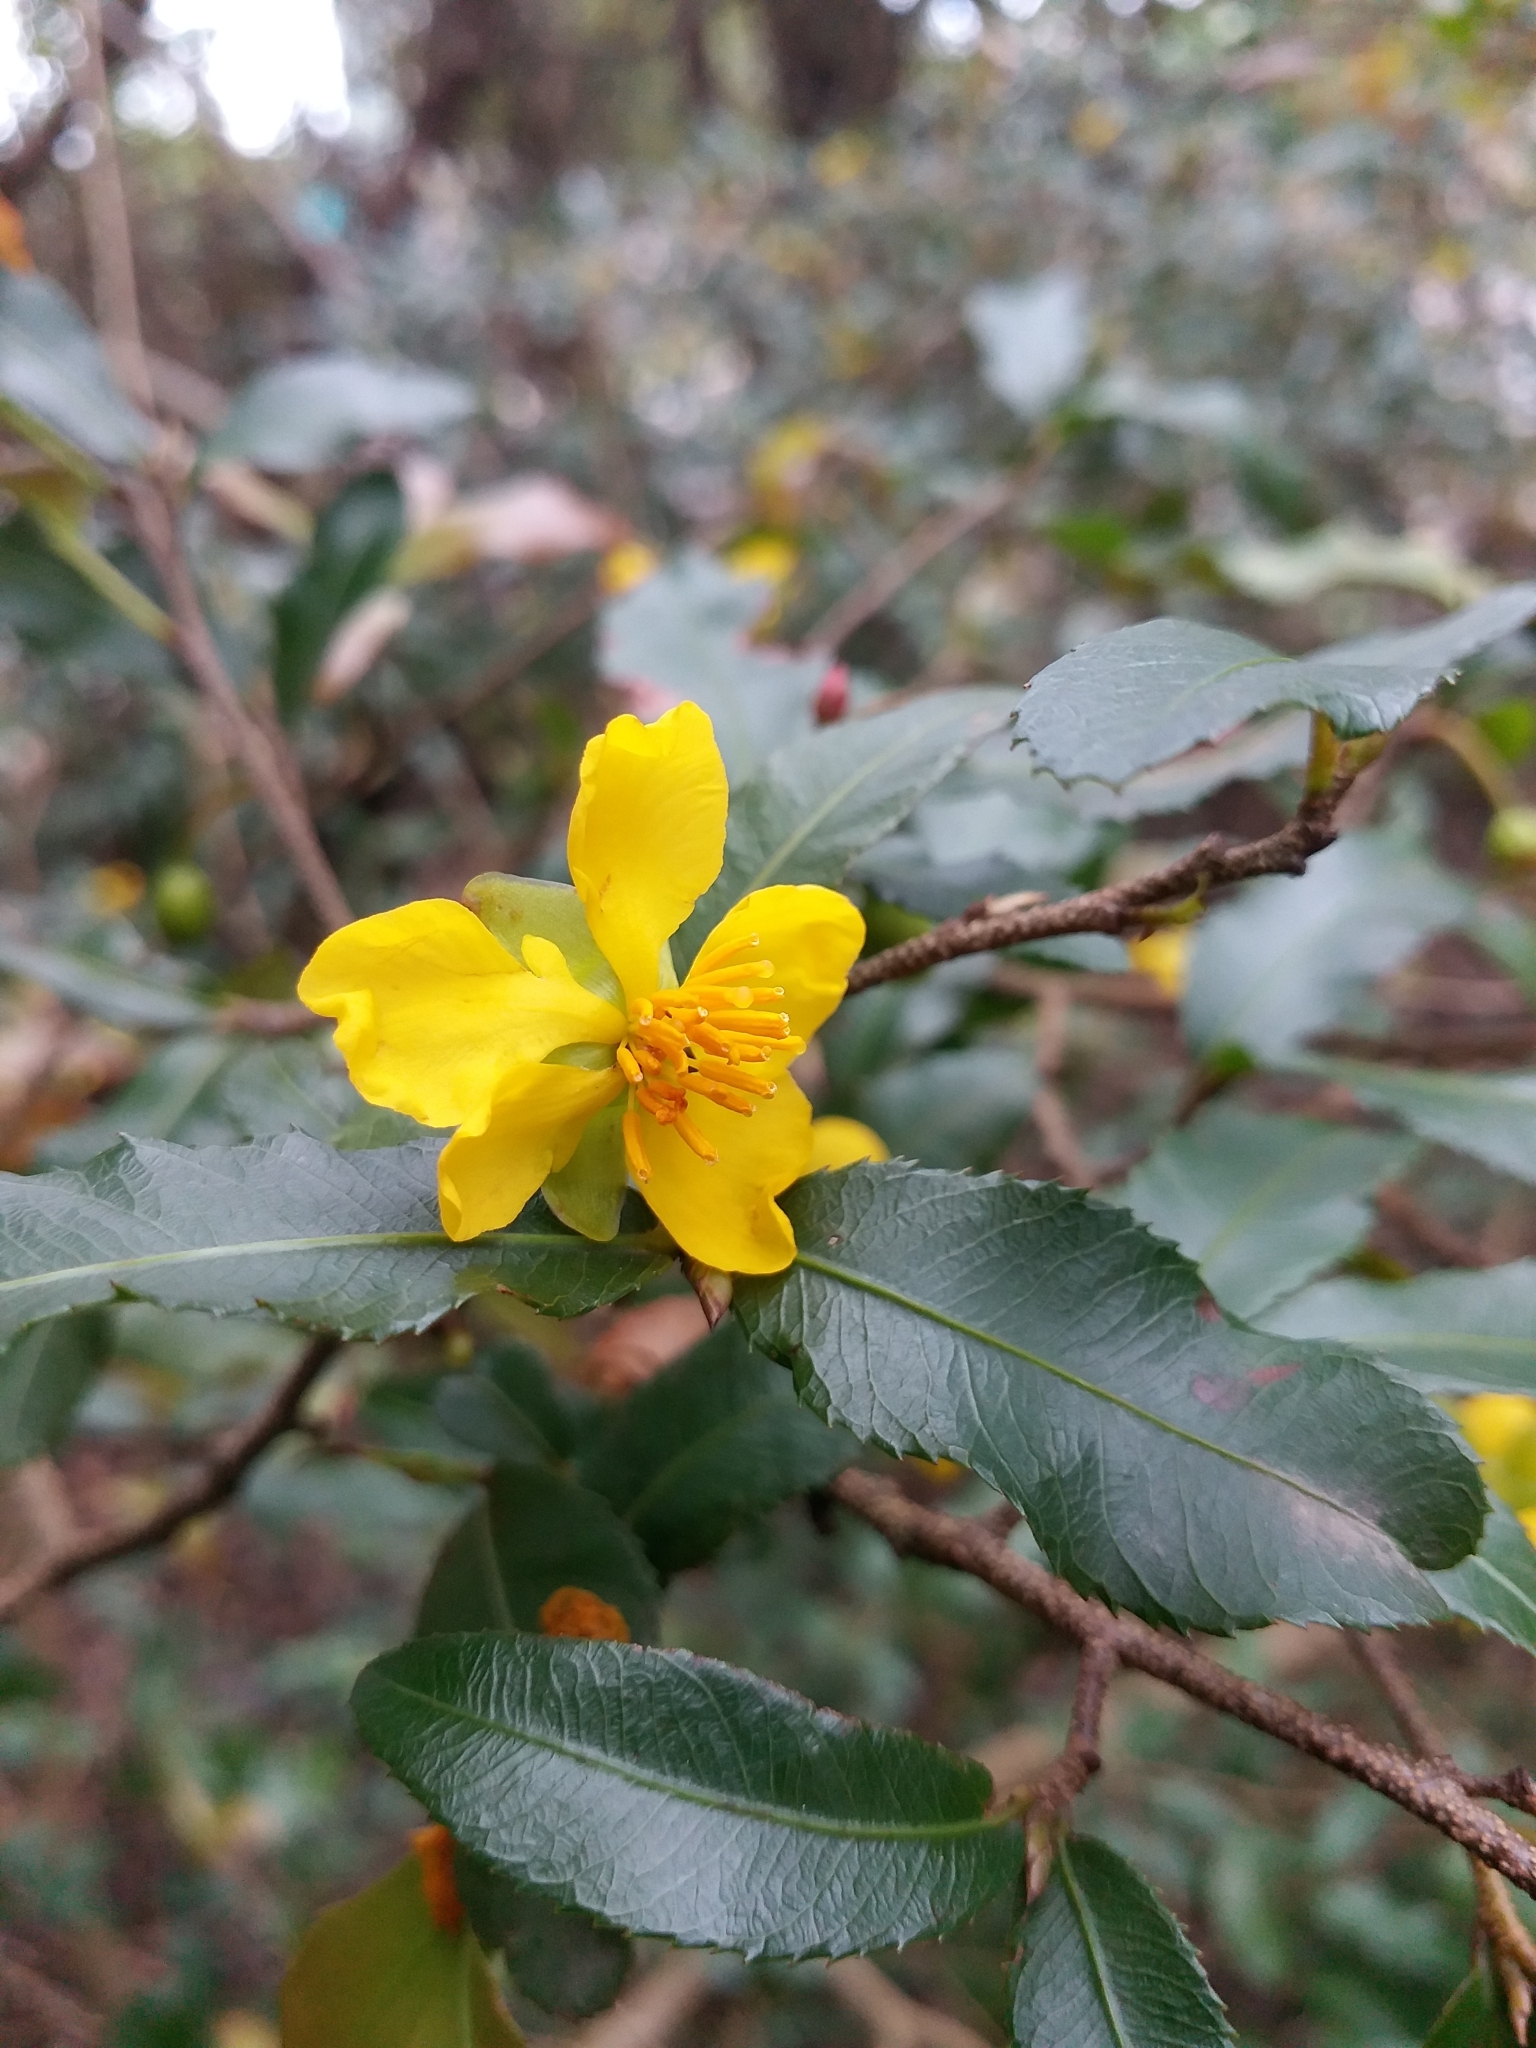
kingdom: Plantae
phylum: Tracheophyta
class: Magnoliopsida
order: Malpighiales
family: Ochnaceae
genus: Ochna
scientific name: Ochna serrulata
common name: Mickey mouse plant
